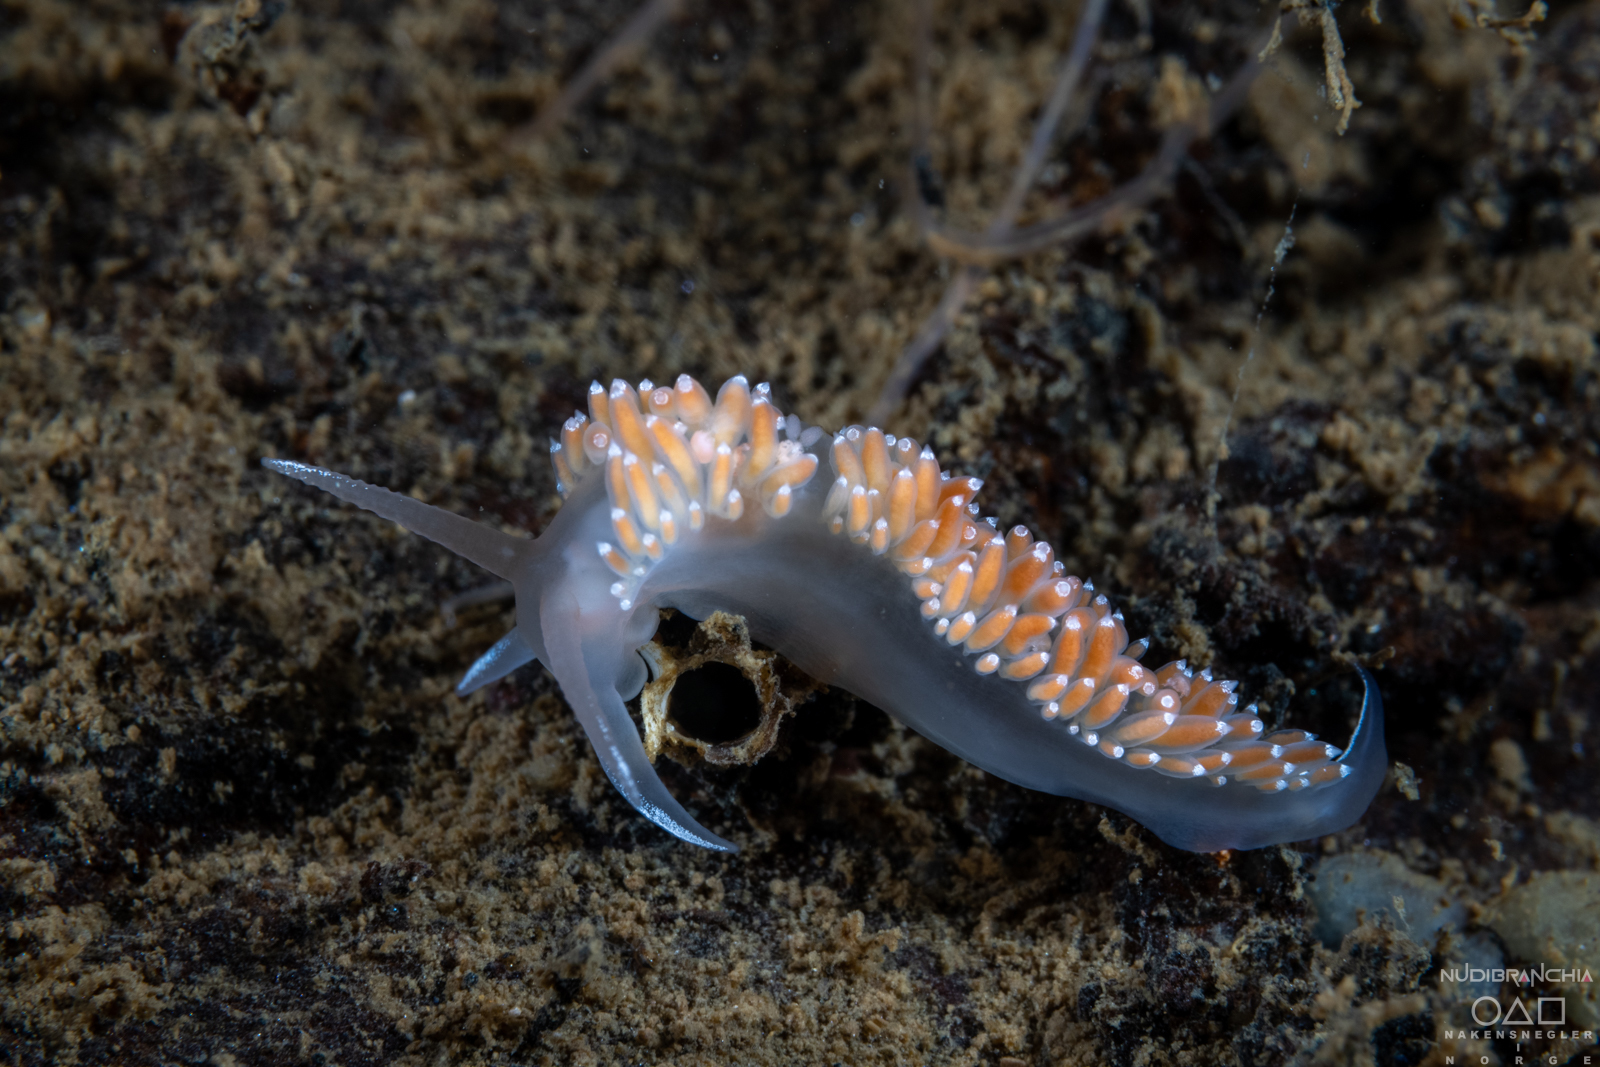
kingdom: Animalia
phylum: Mollusca
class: Gastropoda
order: Nudibranchia
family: Coryphellidae
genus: Coryphella
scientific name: Coryphella verrucosa
